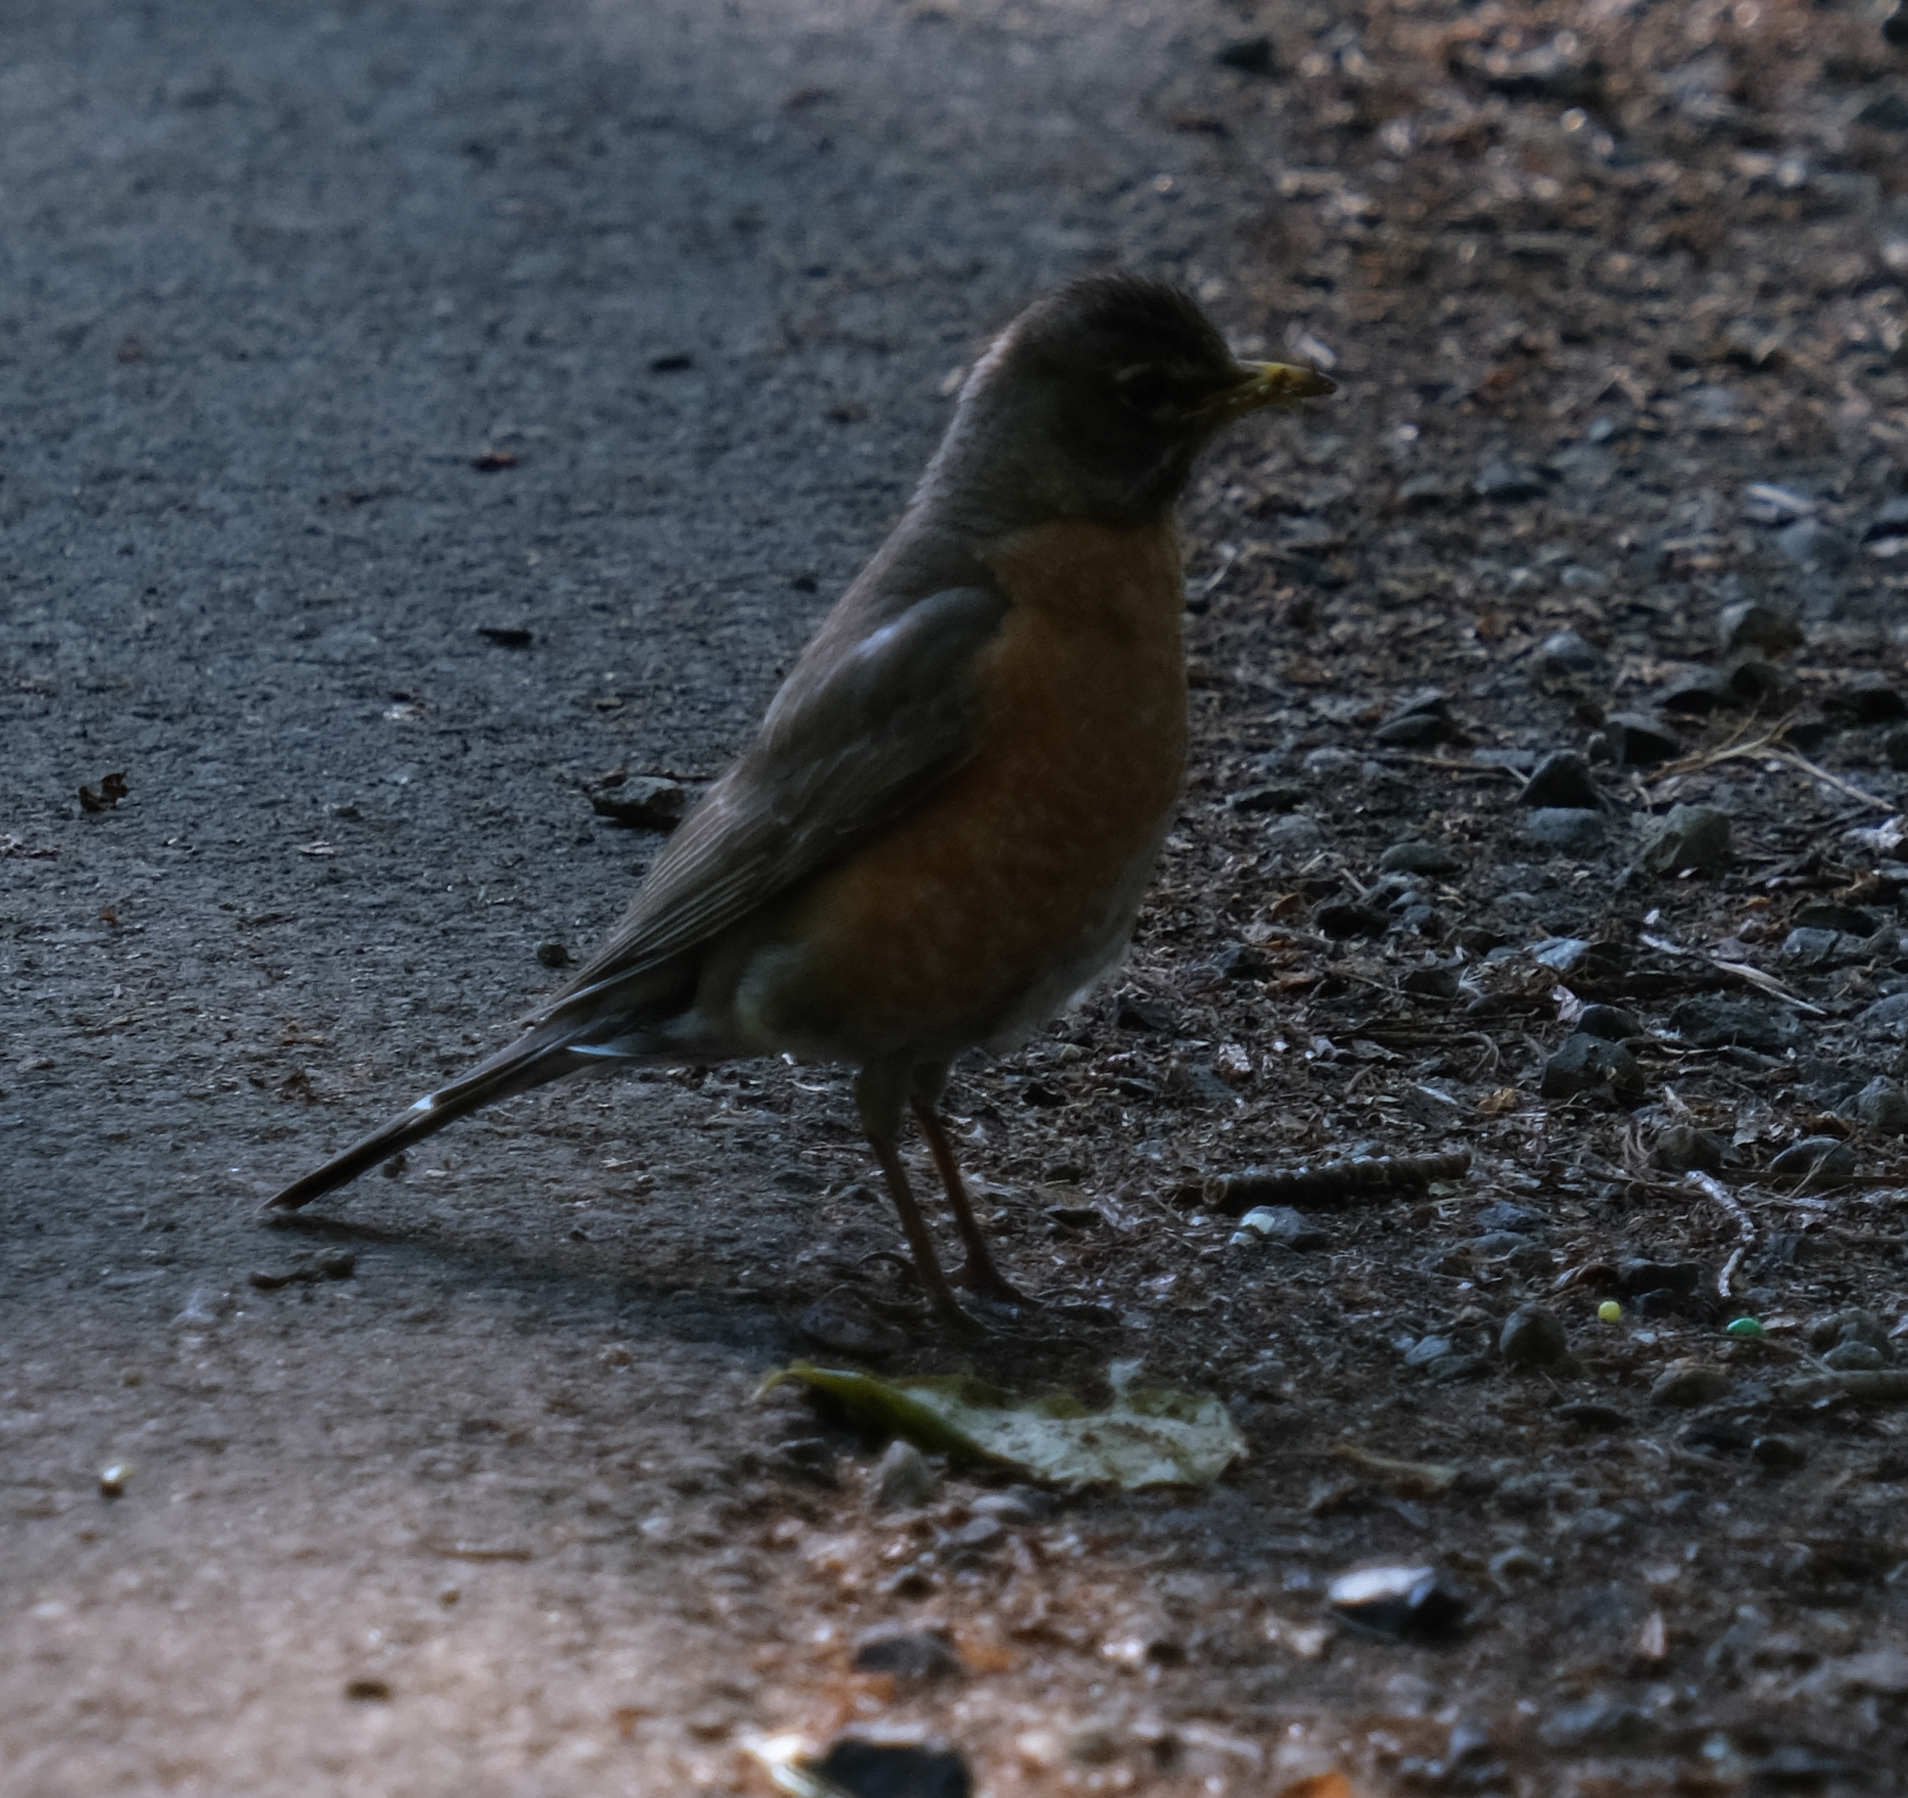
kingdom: Animalia
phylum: Chordata
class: Aves
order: Passeriformes
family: Turdidae
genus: Turdus
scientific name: Turdus migratorius
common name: American robin
